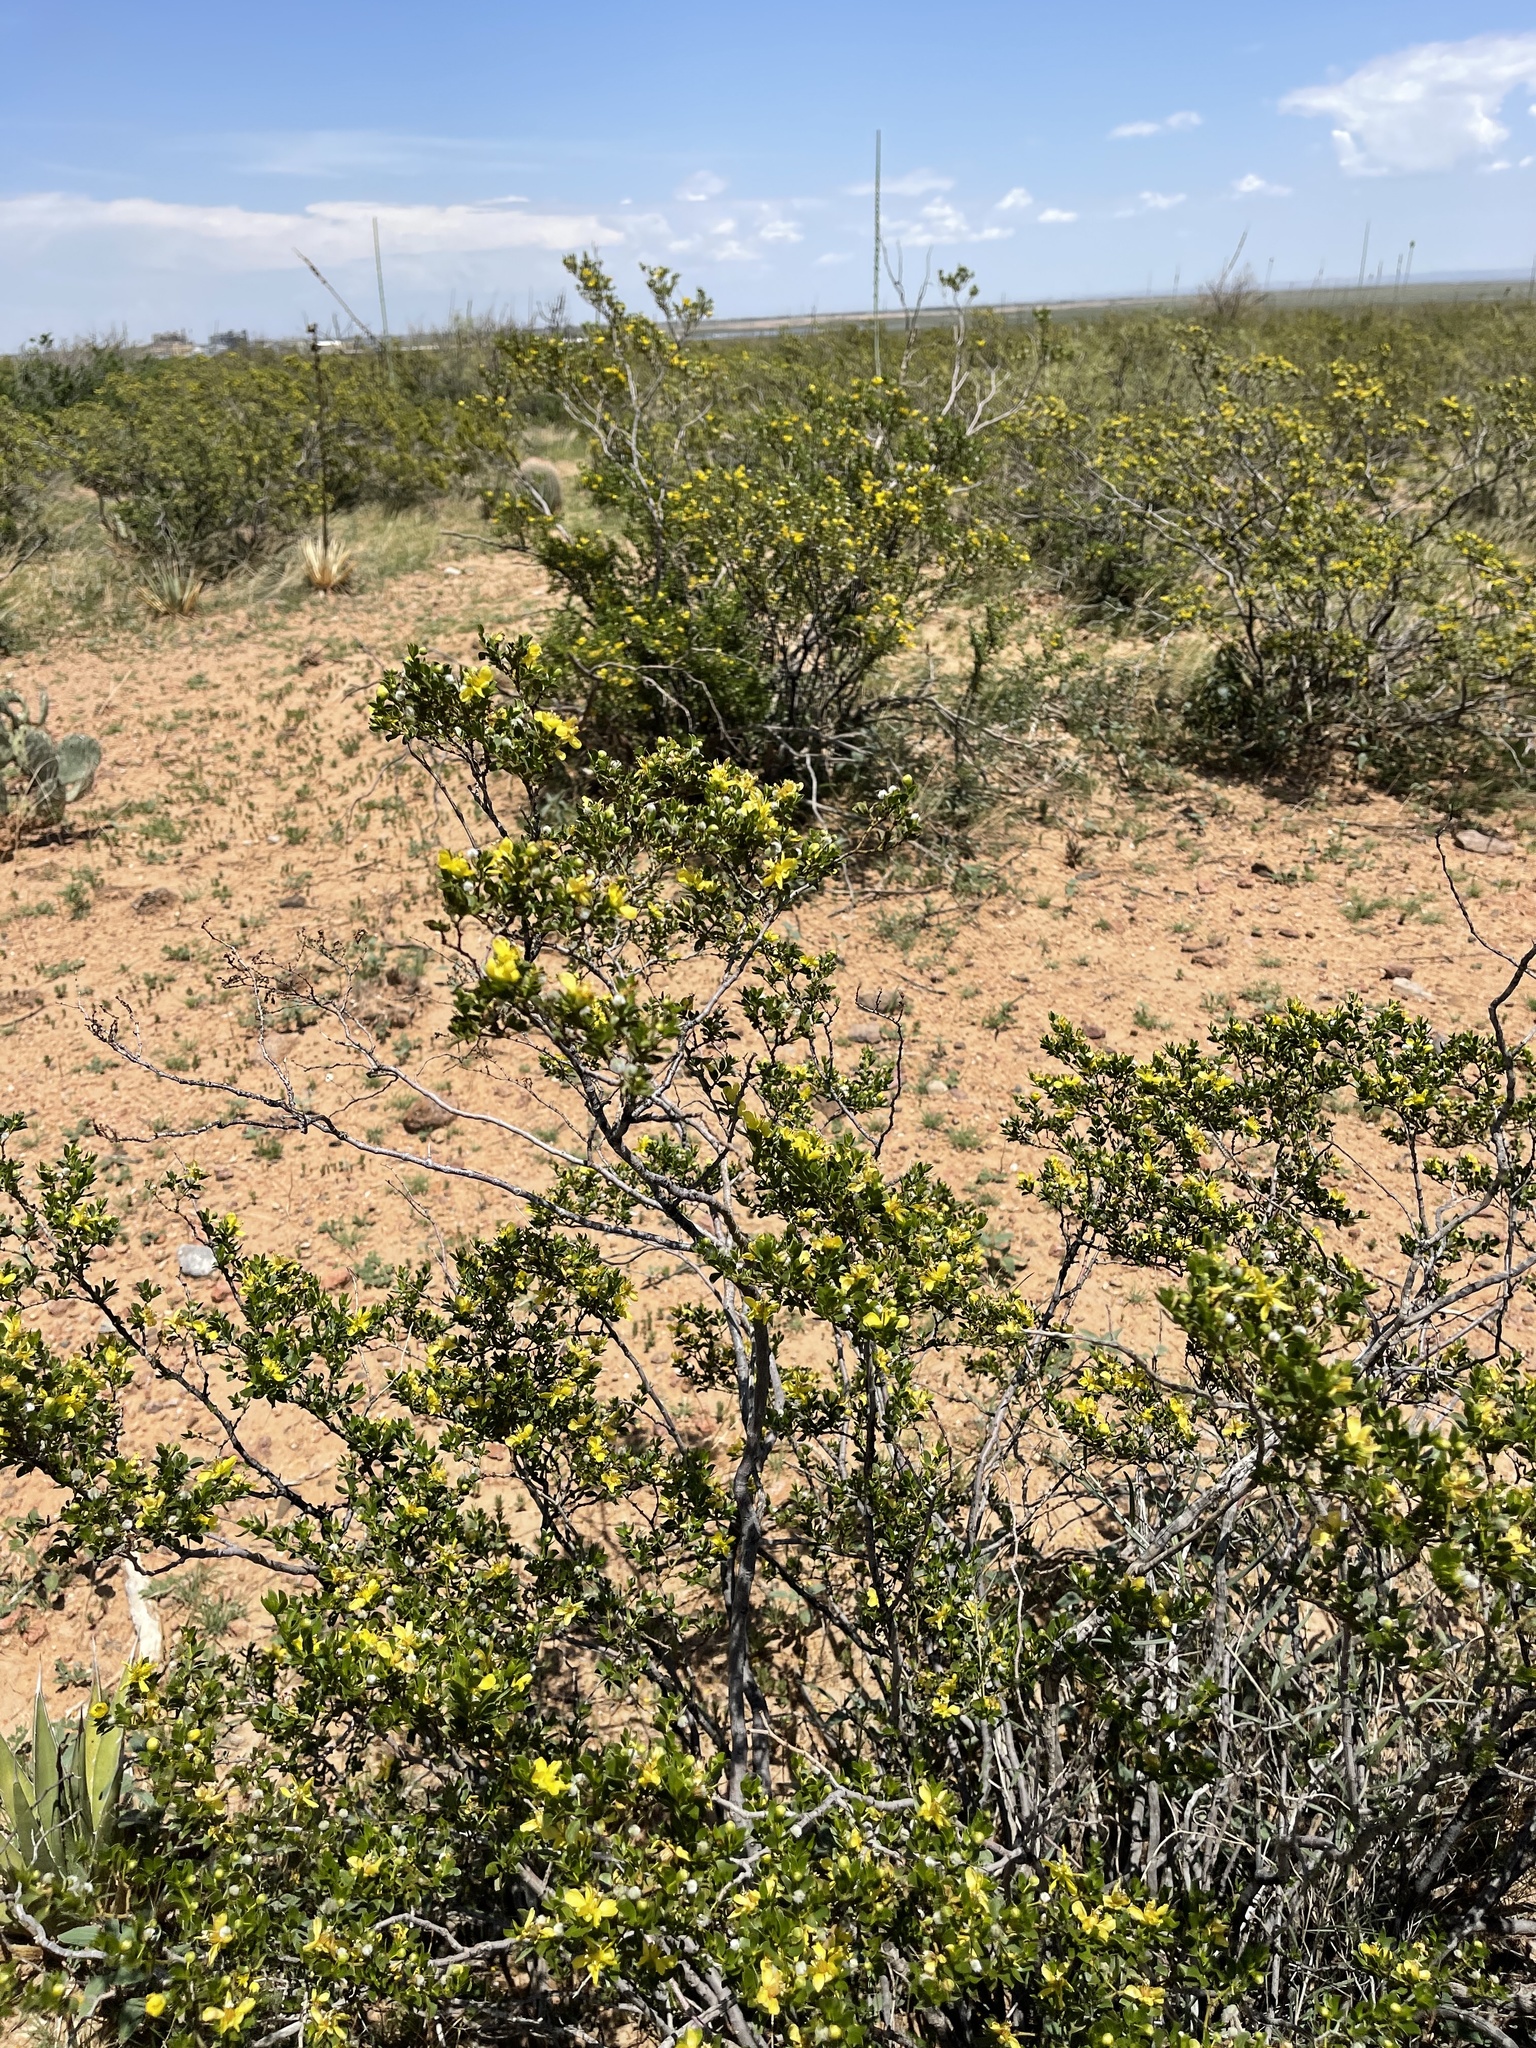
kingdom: Plantae
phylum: Tracheophyta
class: Magnoliopsida
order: Zygophyllales
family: Zygophyllaceae
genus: Larrea
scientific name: Larrea tridentata
